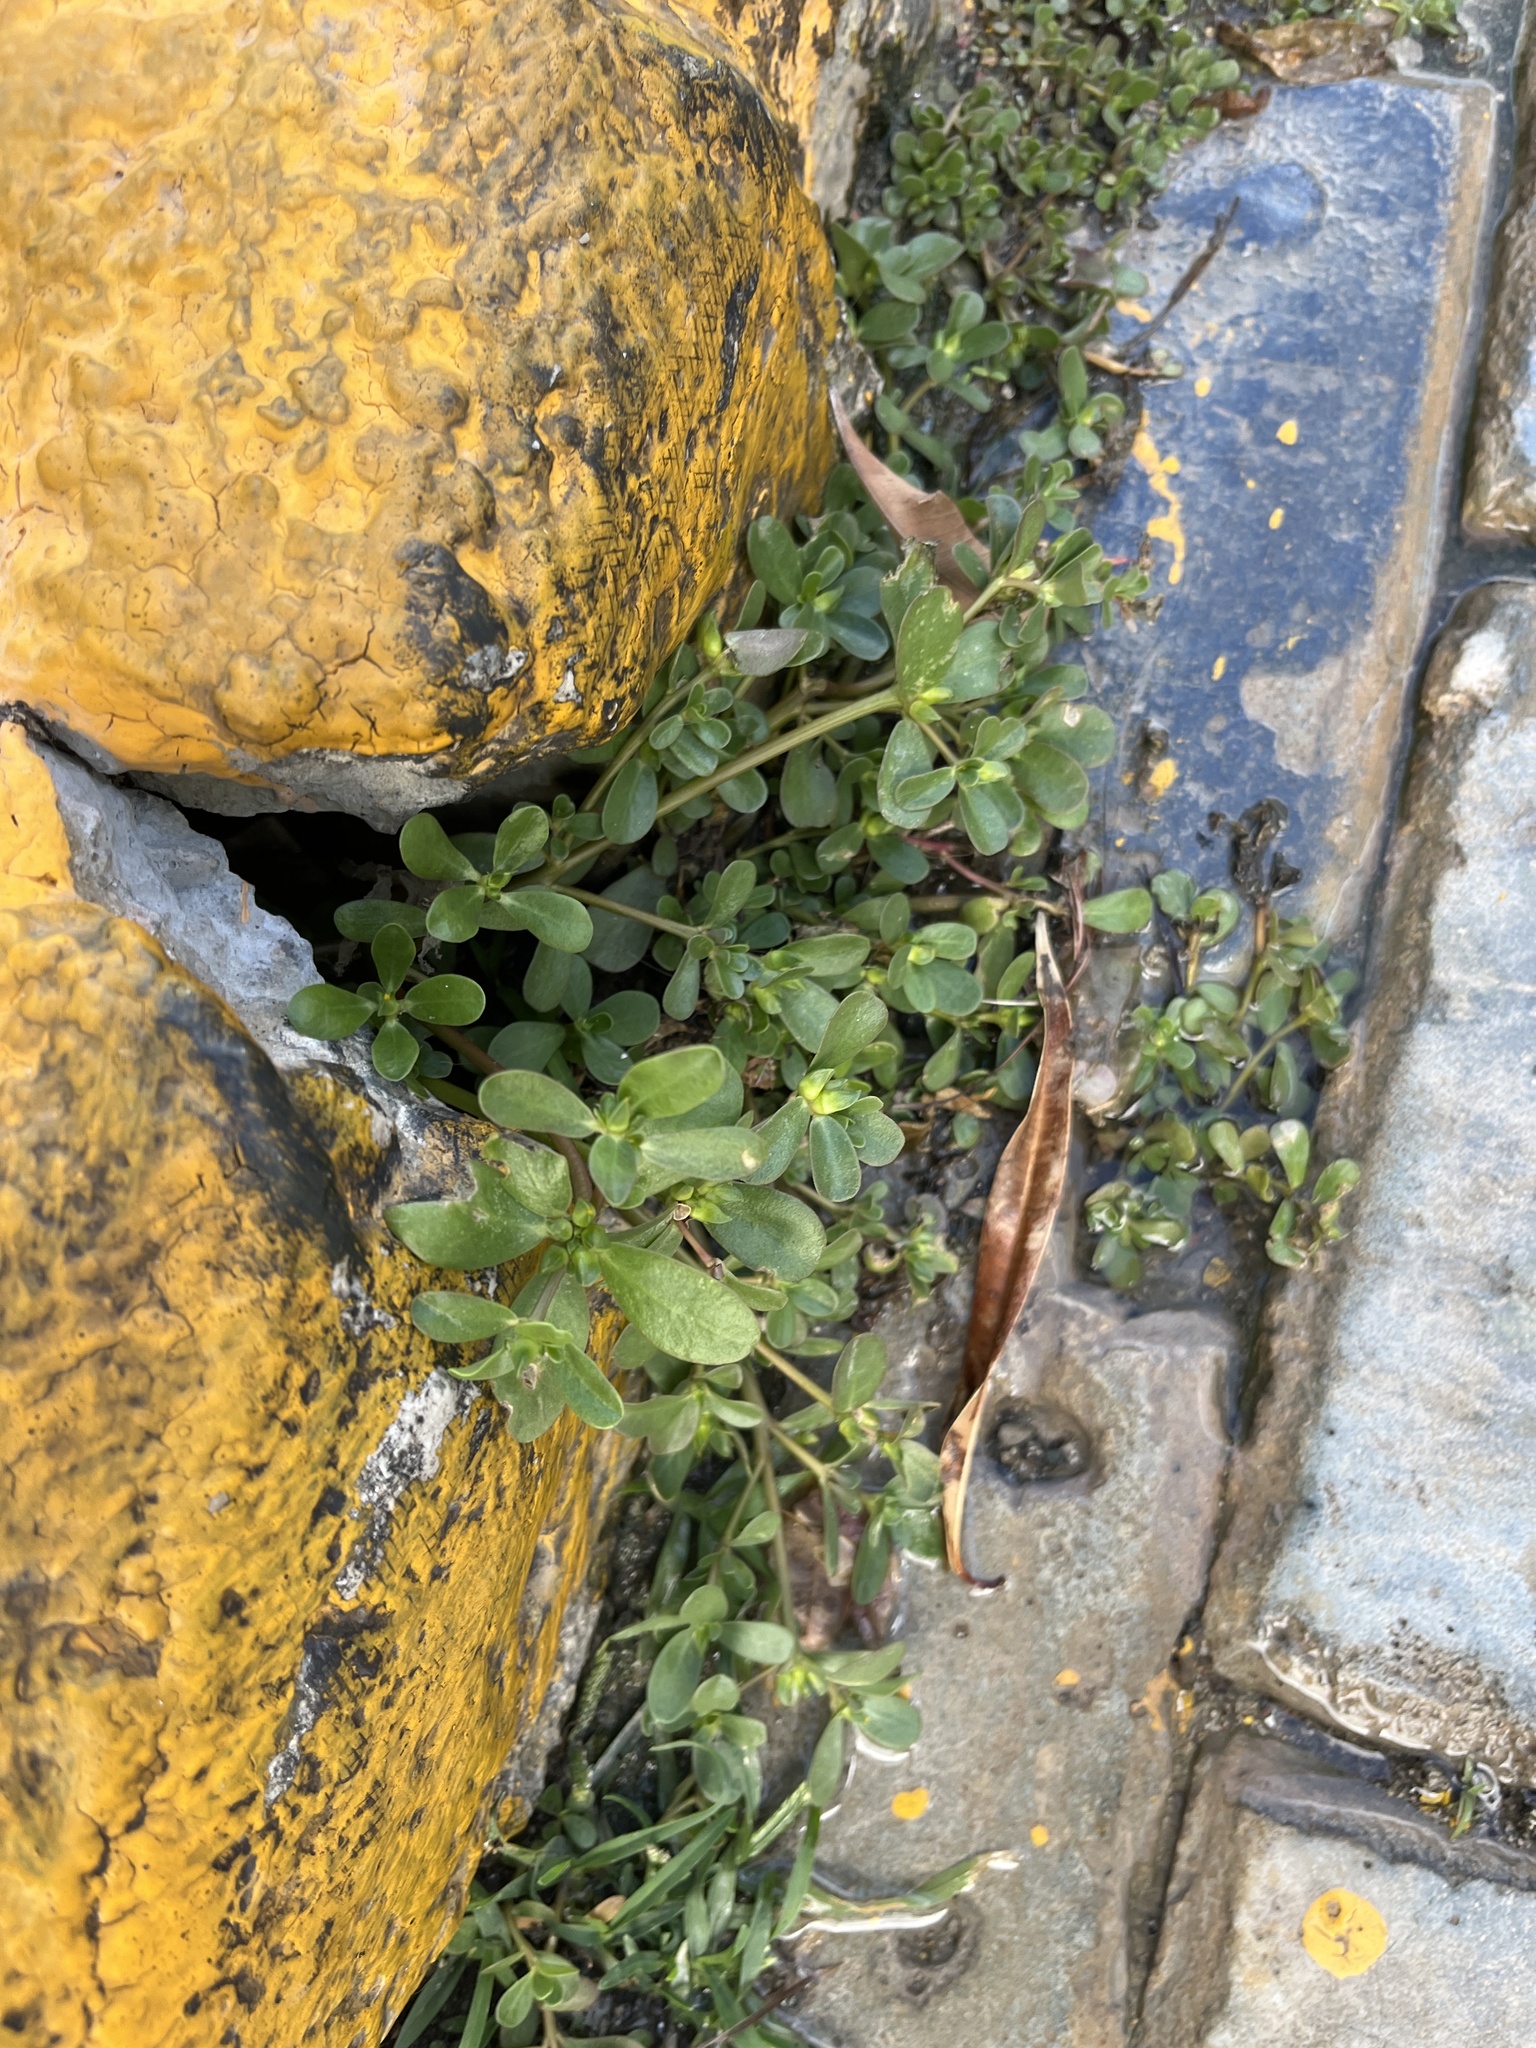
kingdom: Plantae
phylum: Tracheophyta
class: Magnoliopsida
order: Caryophyllales
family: Portulacaceae
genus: Portulaca
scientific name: Portulaca oleracea
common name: Common purslane
